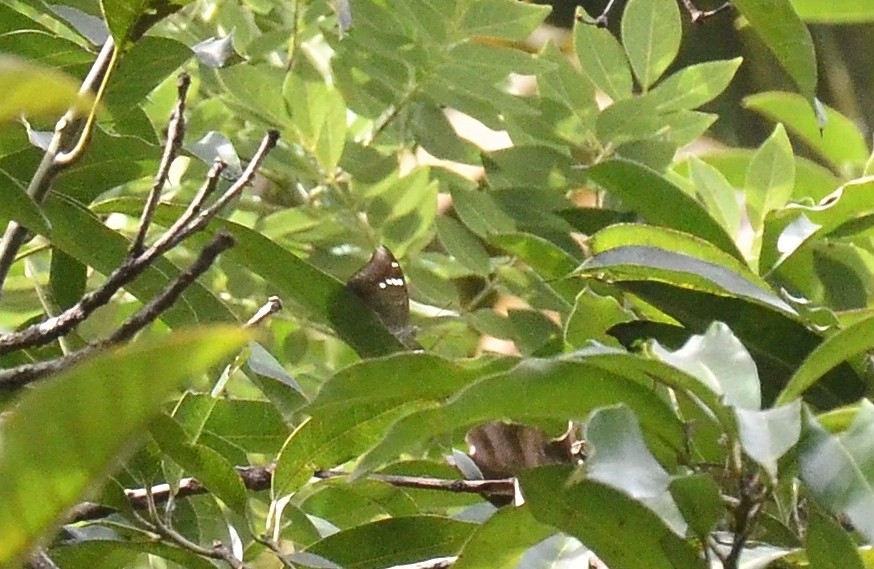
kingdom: Animalia
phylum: Arthropoda
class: Insecta
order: Lepidoptera
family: Nymphalidae
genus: Euthalia
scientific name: Euthalia aconthea
